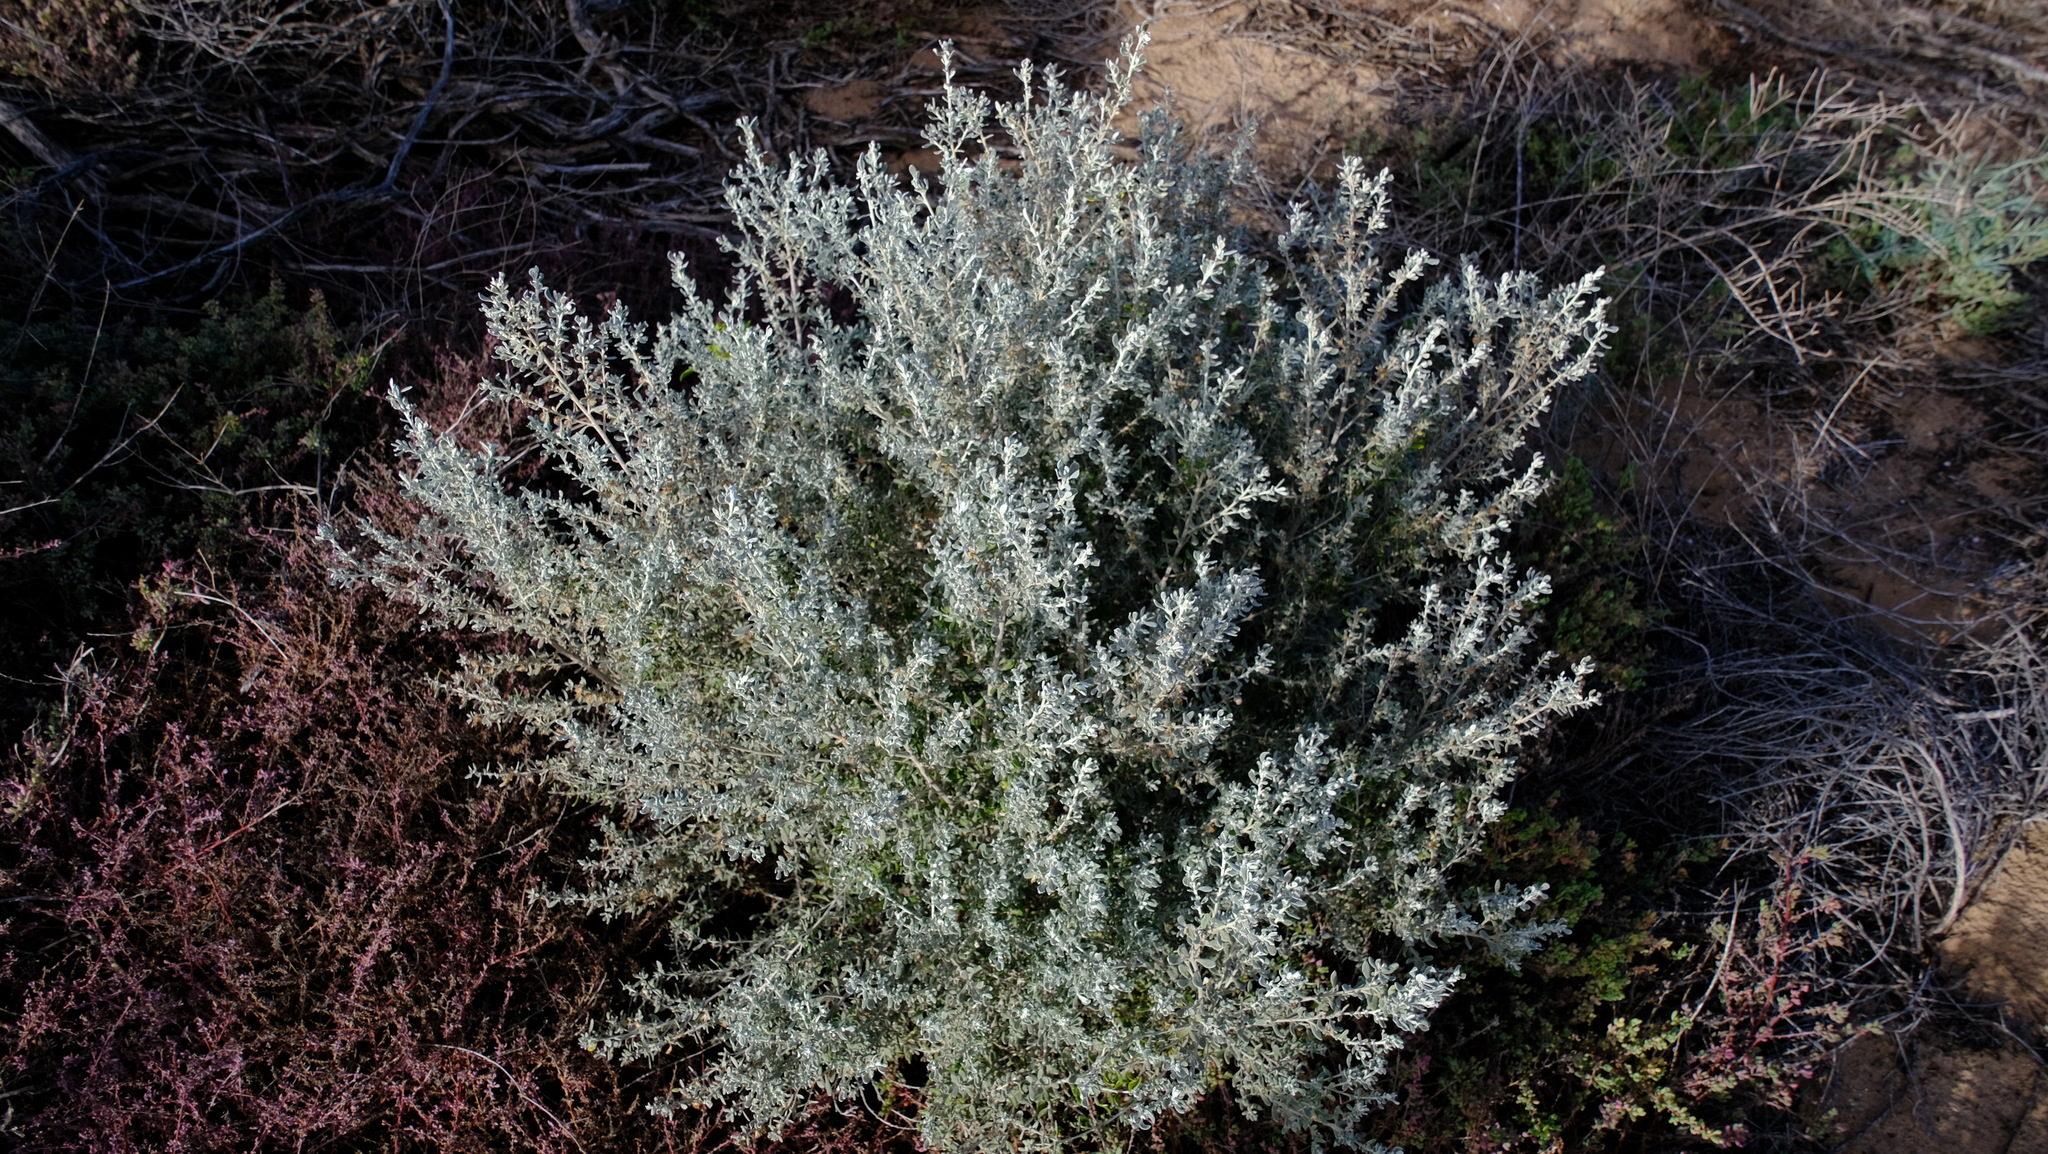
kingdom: Plantae
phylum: Tracheophyta
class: Magnoliopsida
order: Asterales
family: Asteraceae
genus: Olearia
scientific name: Olearia axillaris
